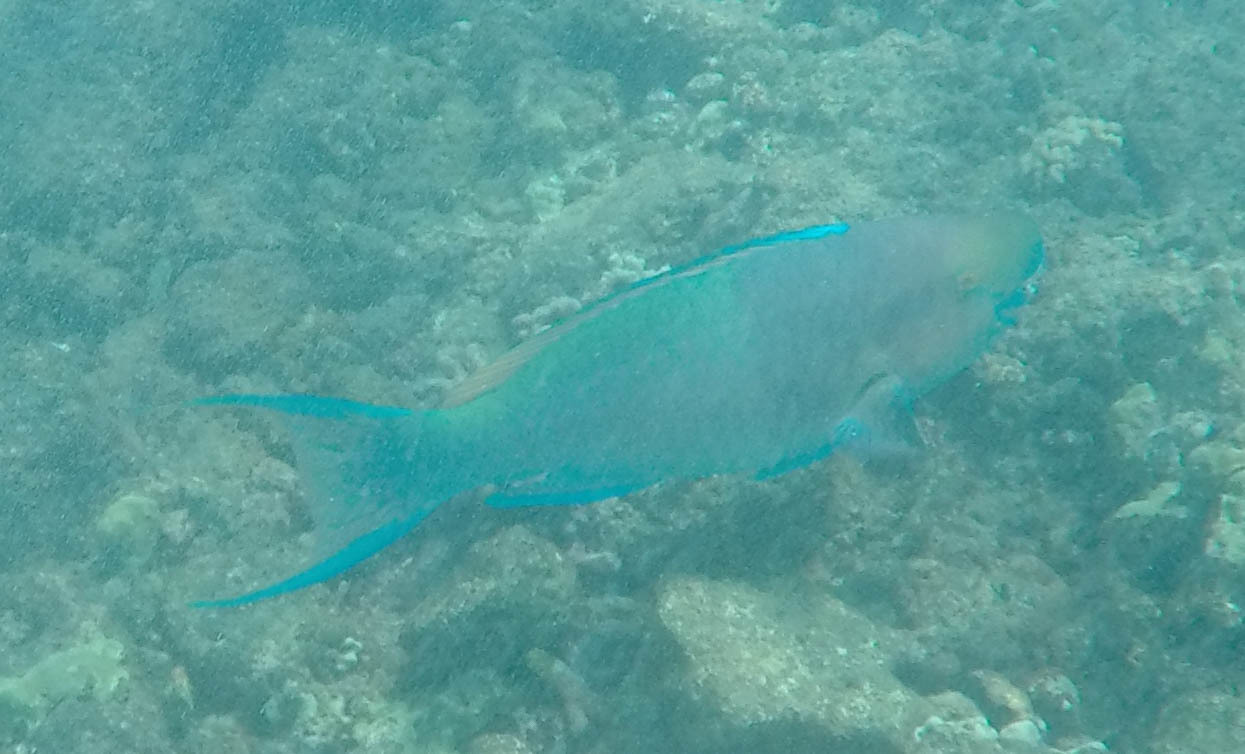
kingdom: Animalia
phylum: Chordata
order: Perciformes
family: Scaridae
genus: Scarus
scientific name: Scarus rubroviolaceus
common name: Ember parrotfish
